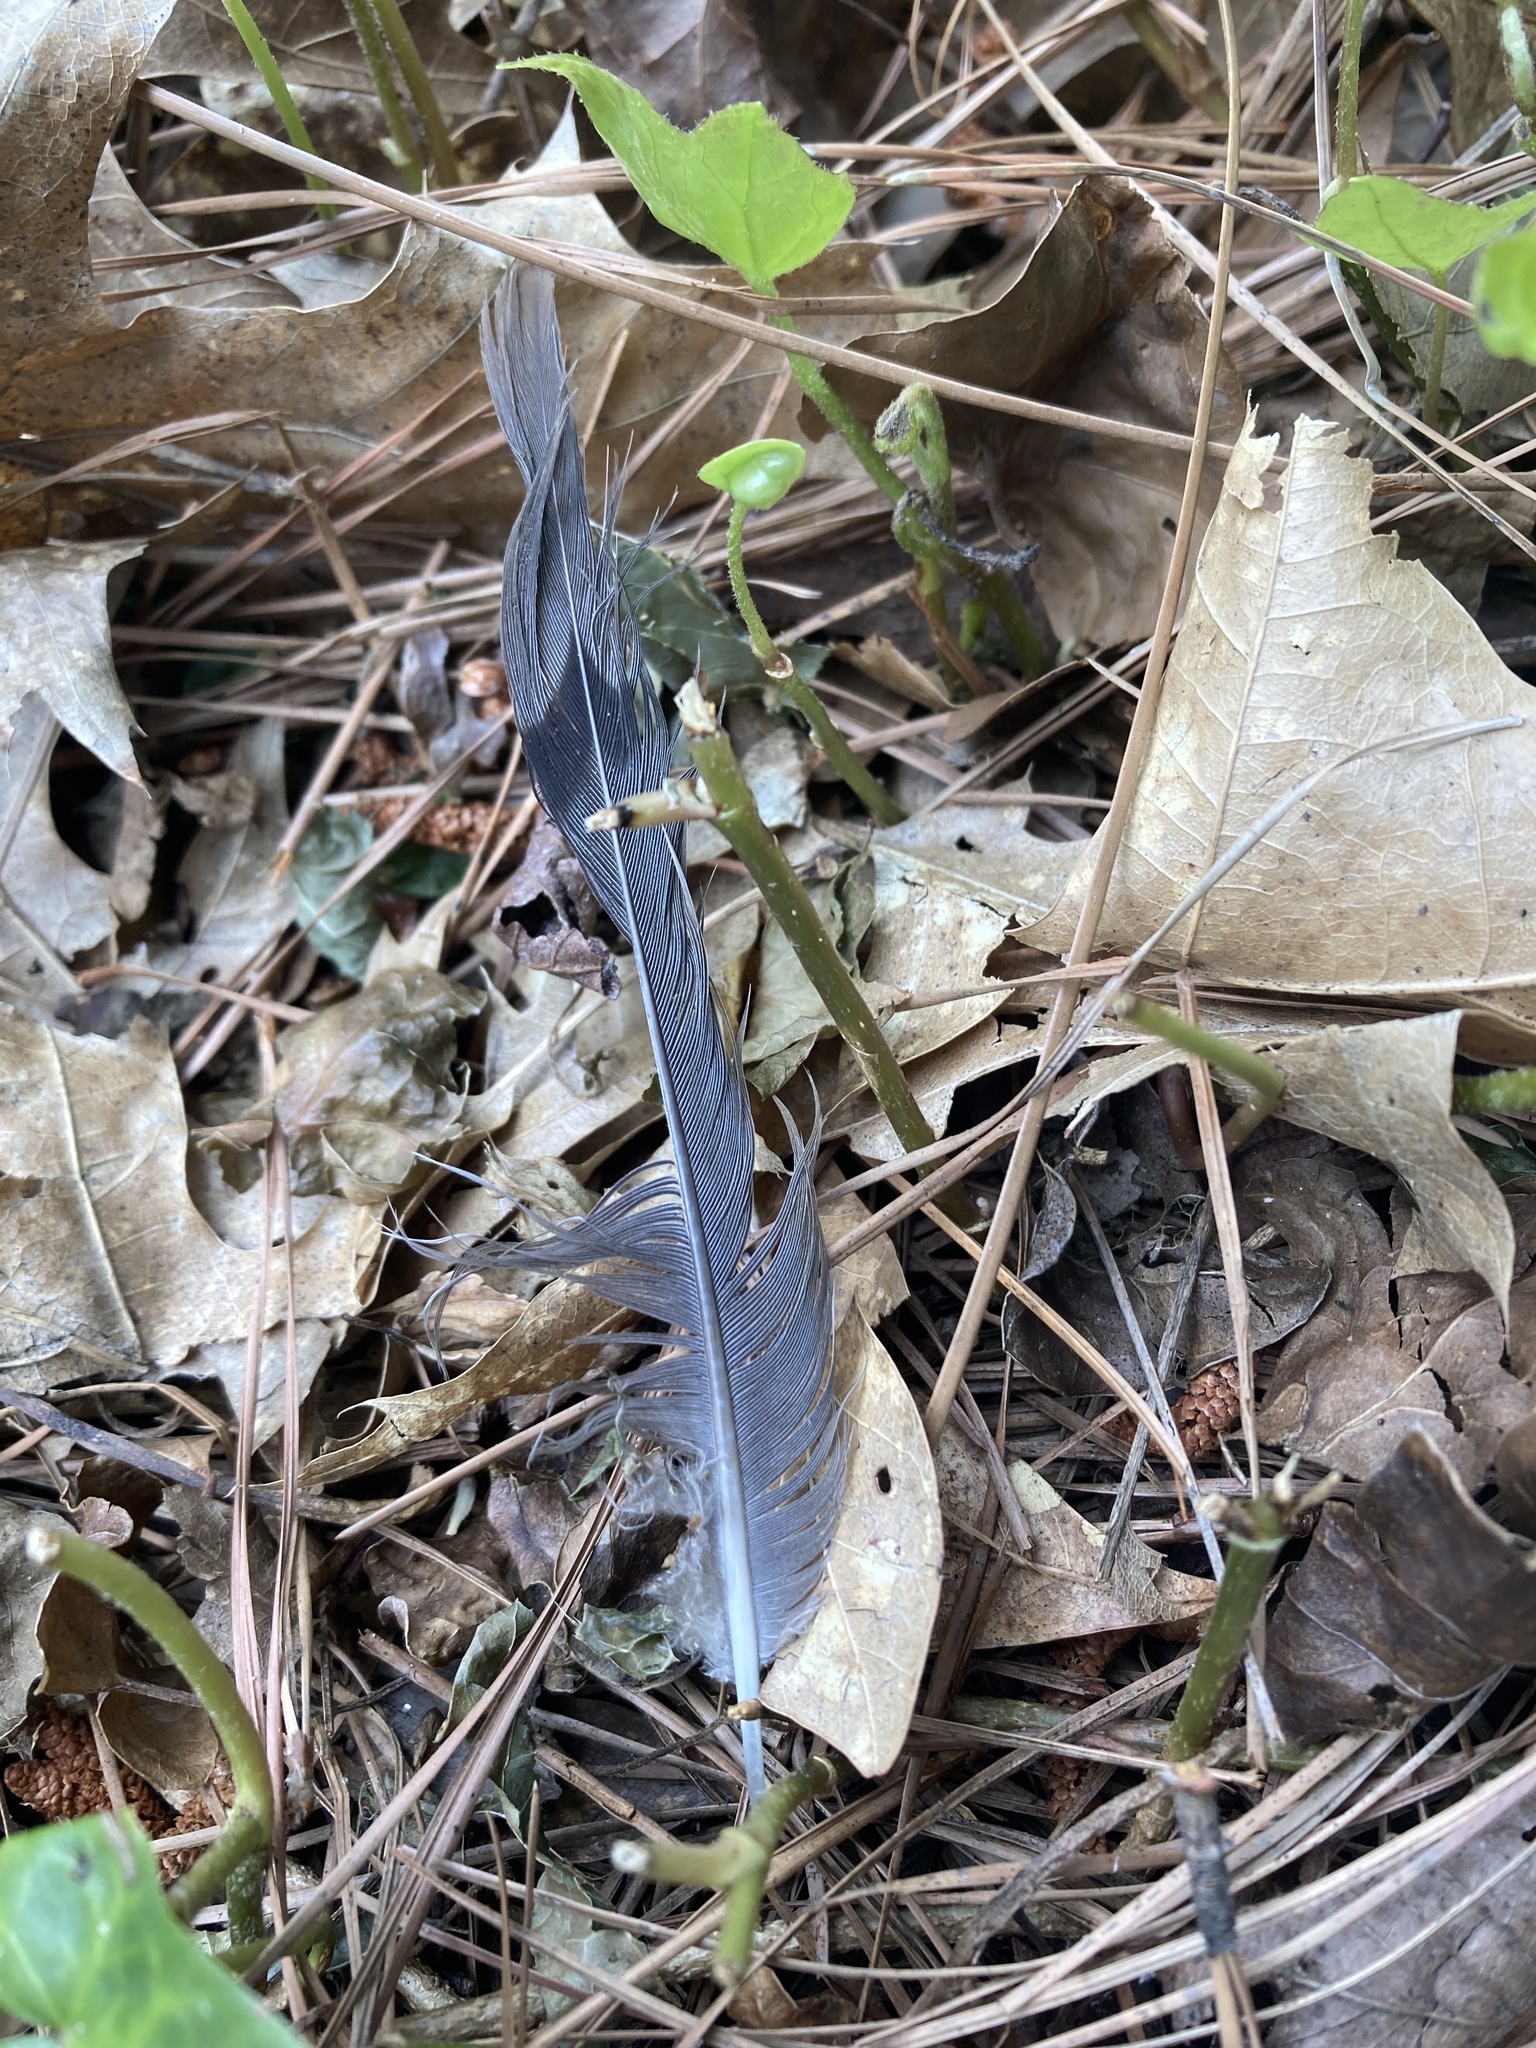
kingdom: Animalia
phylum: Chordata
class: Aves
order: Columbiformes
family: Columbidae
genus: Zenaida
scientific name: Zenaida macroura
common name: Mourning dove
